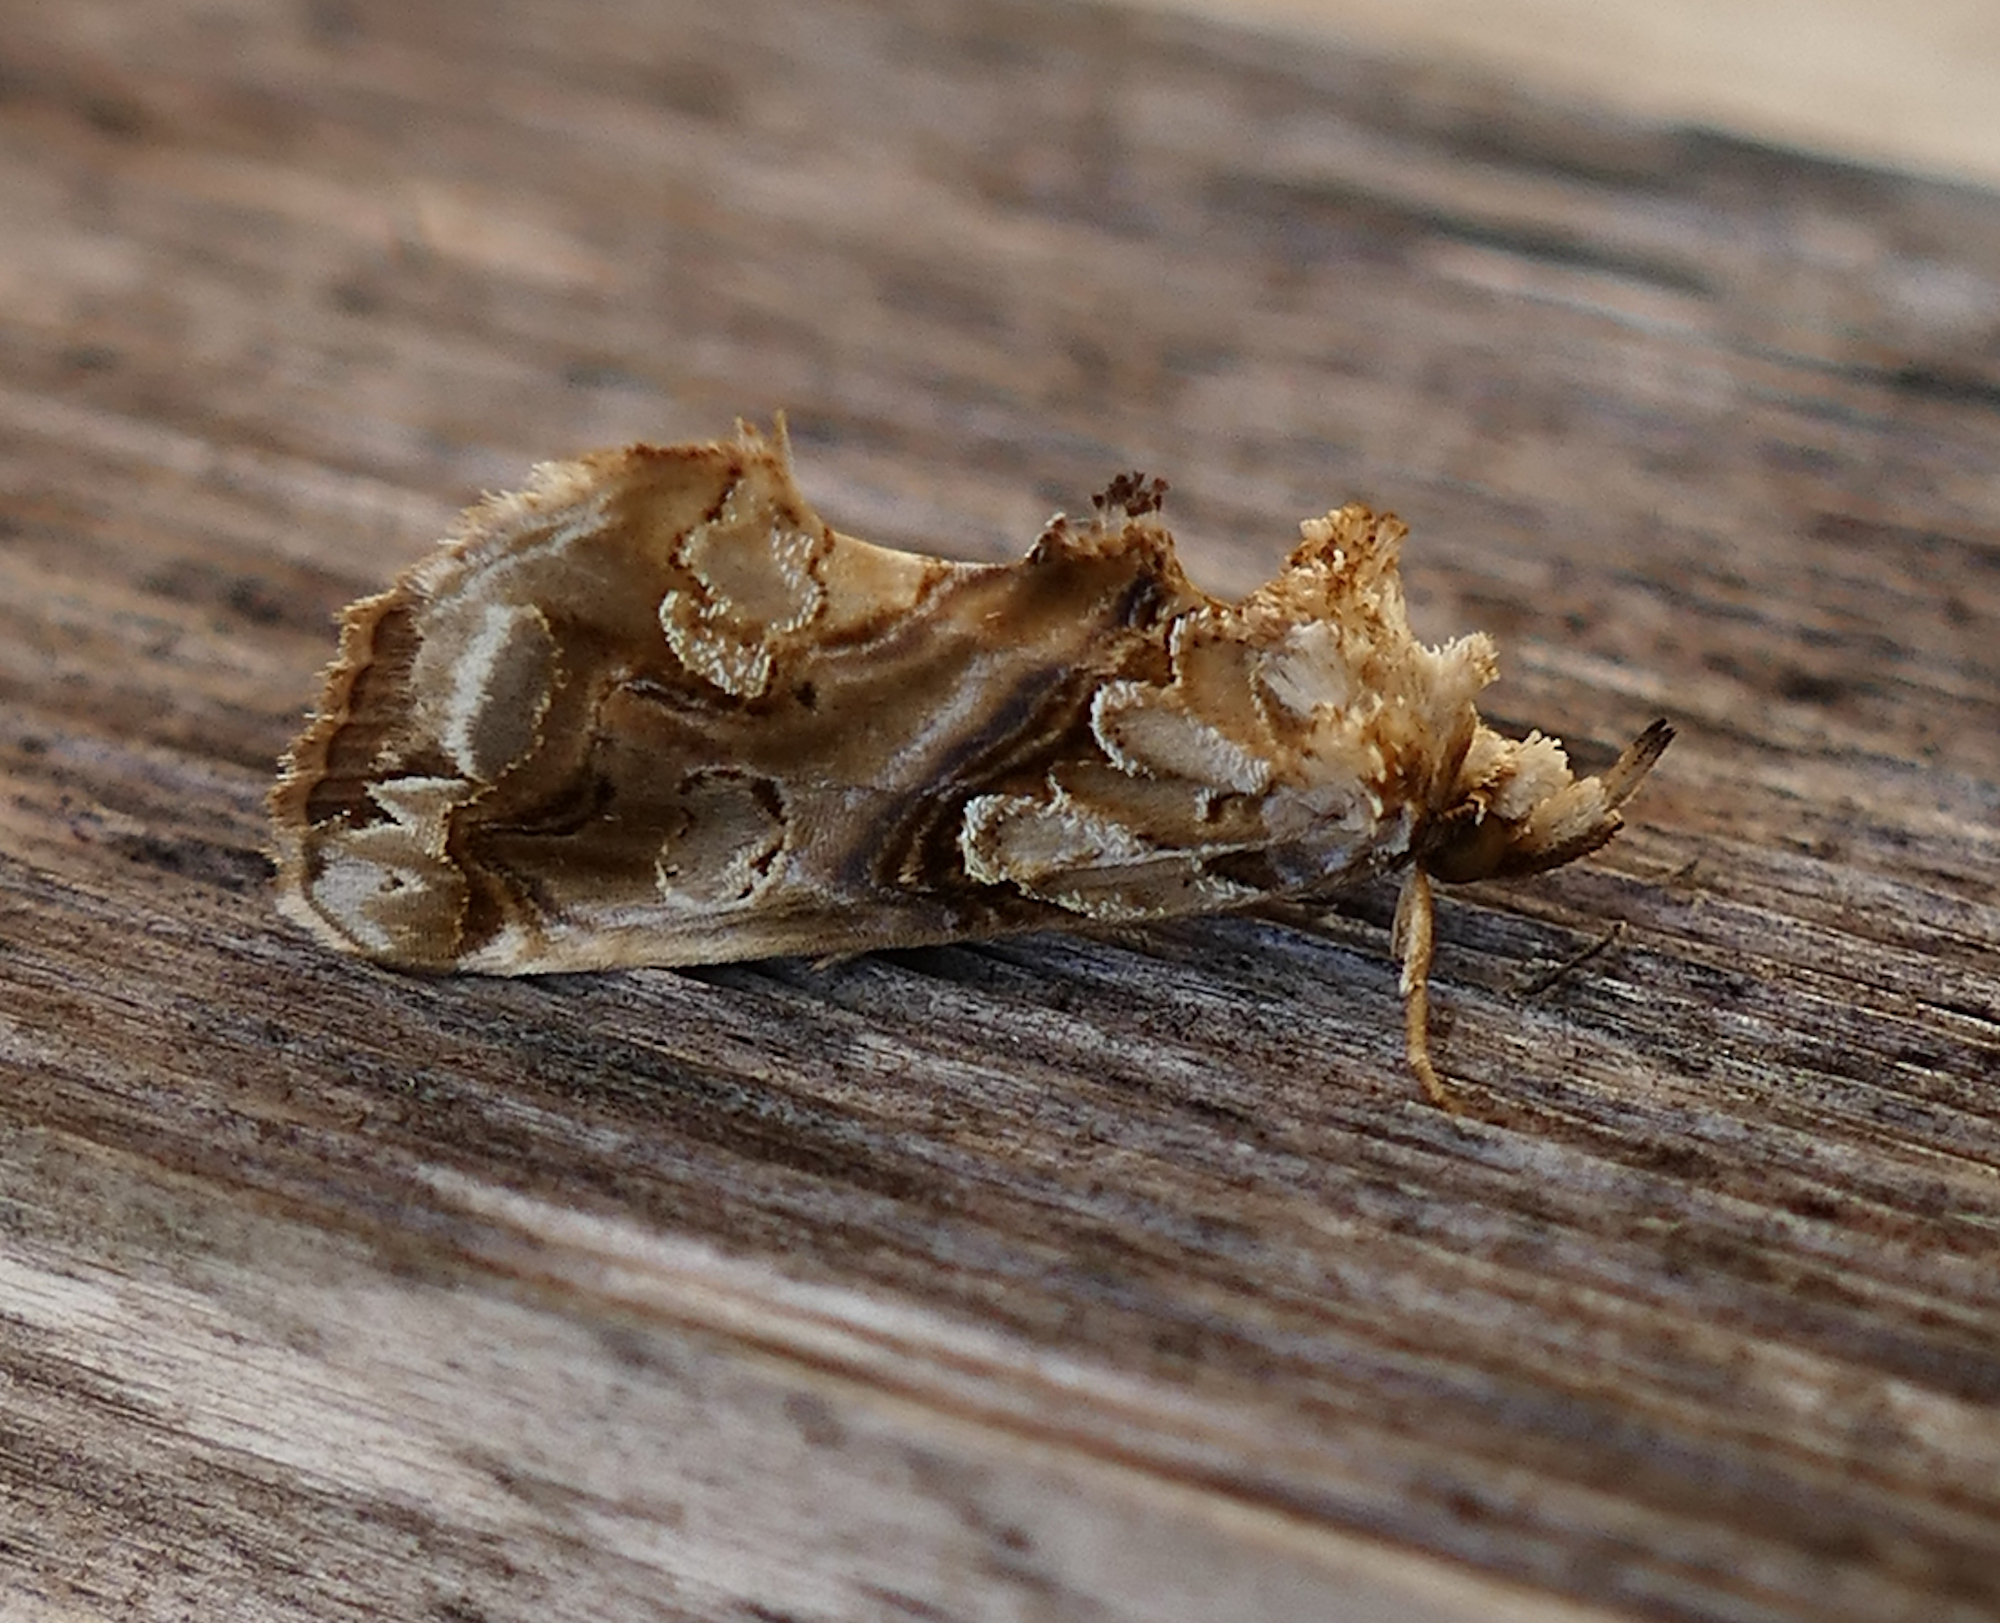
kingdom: Animalia
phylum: Arthropoda
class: Insecta
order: Lepidoptera
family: Erebidae
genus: Plusiodonta
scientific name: Plusiodonta compressipalpis
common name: Moonseed moth
